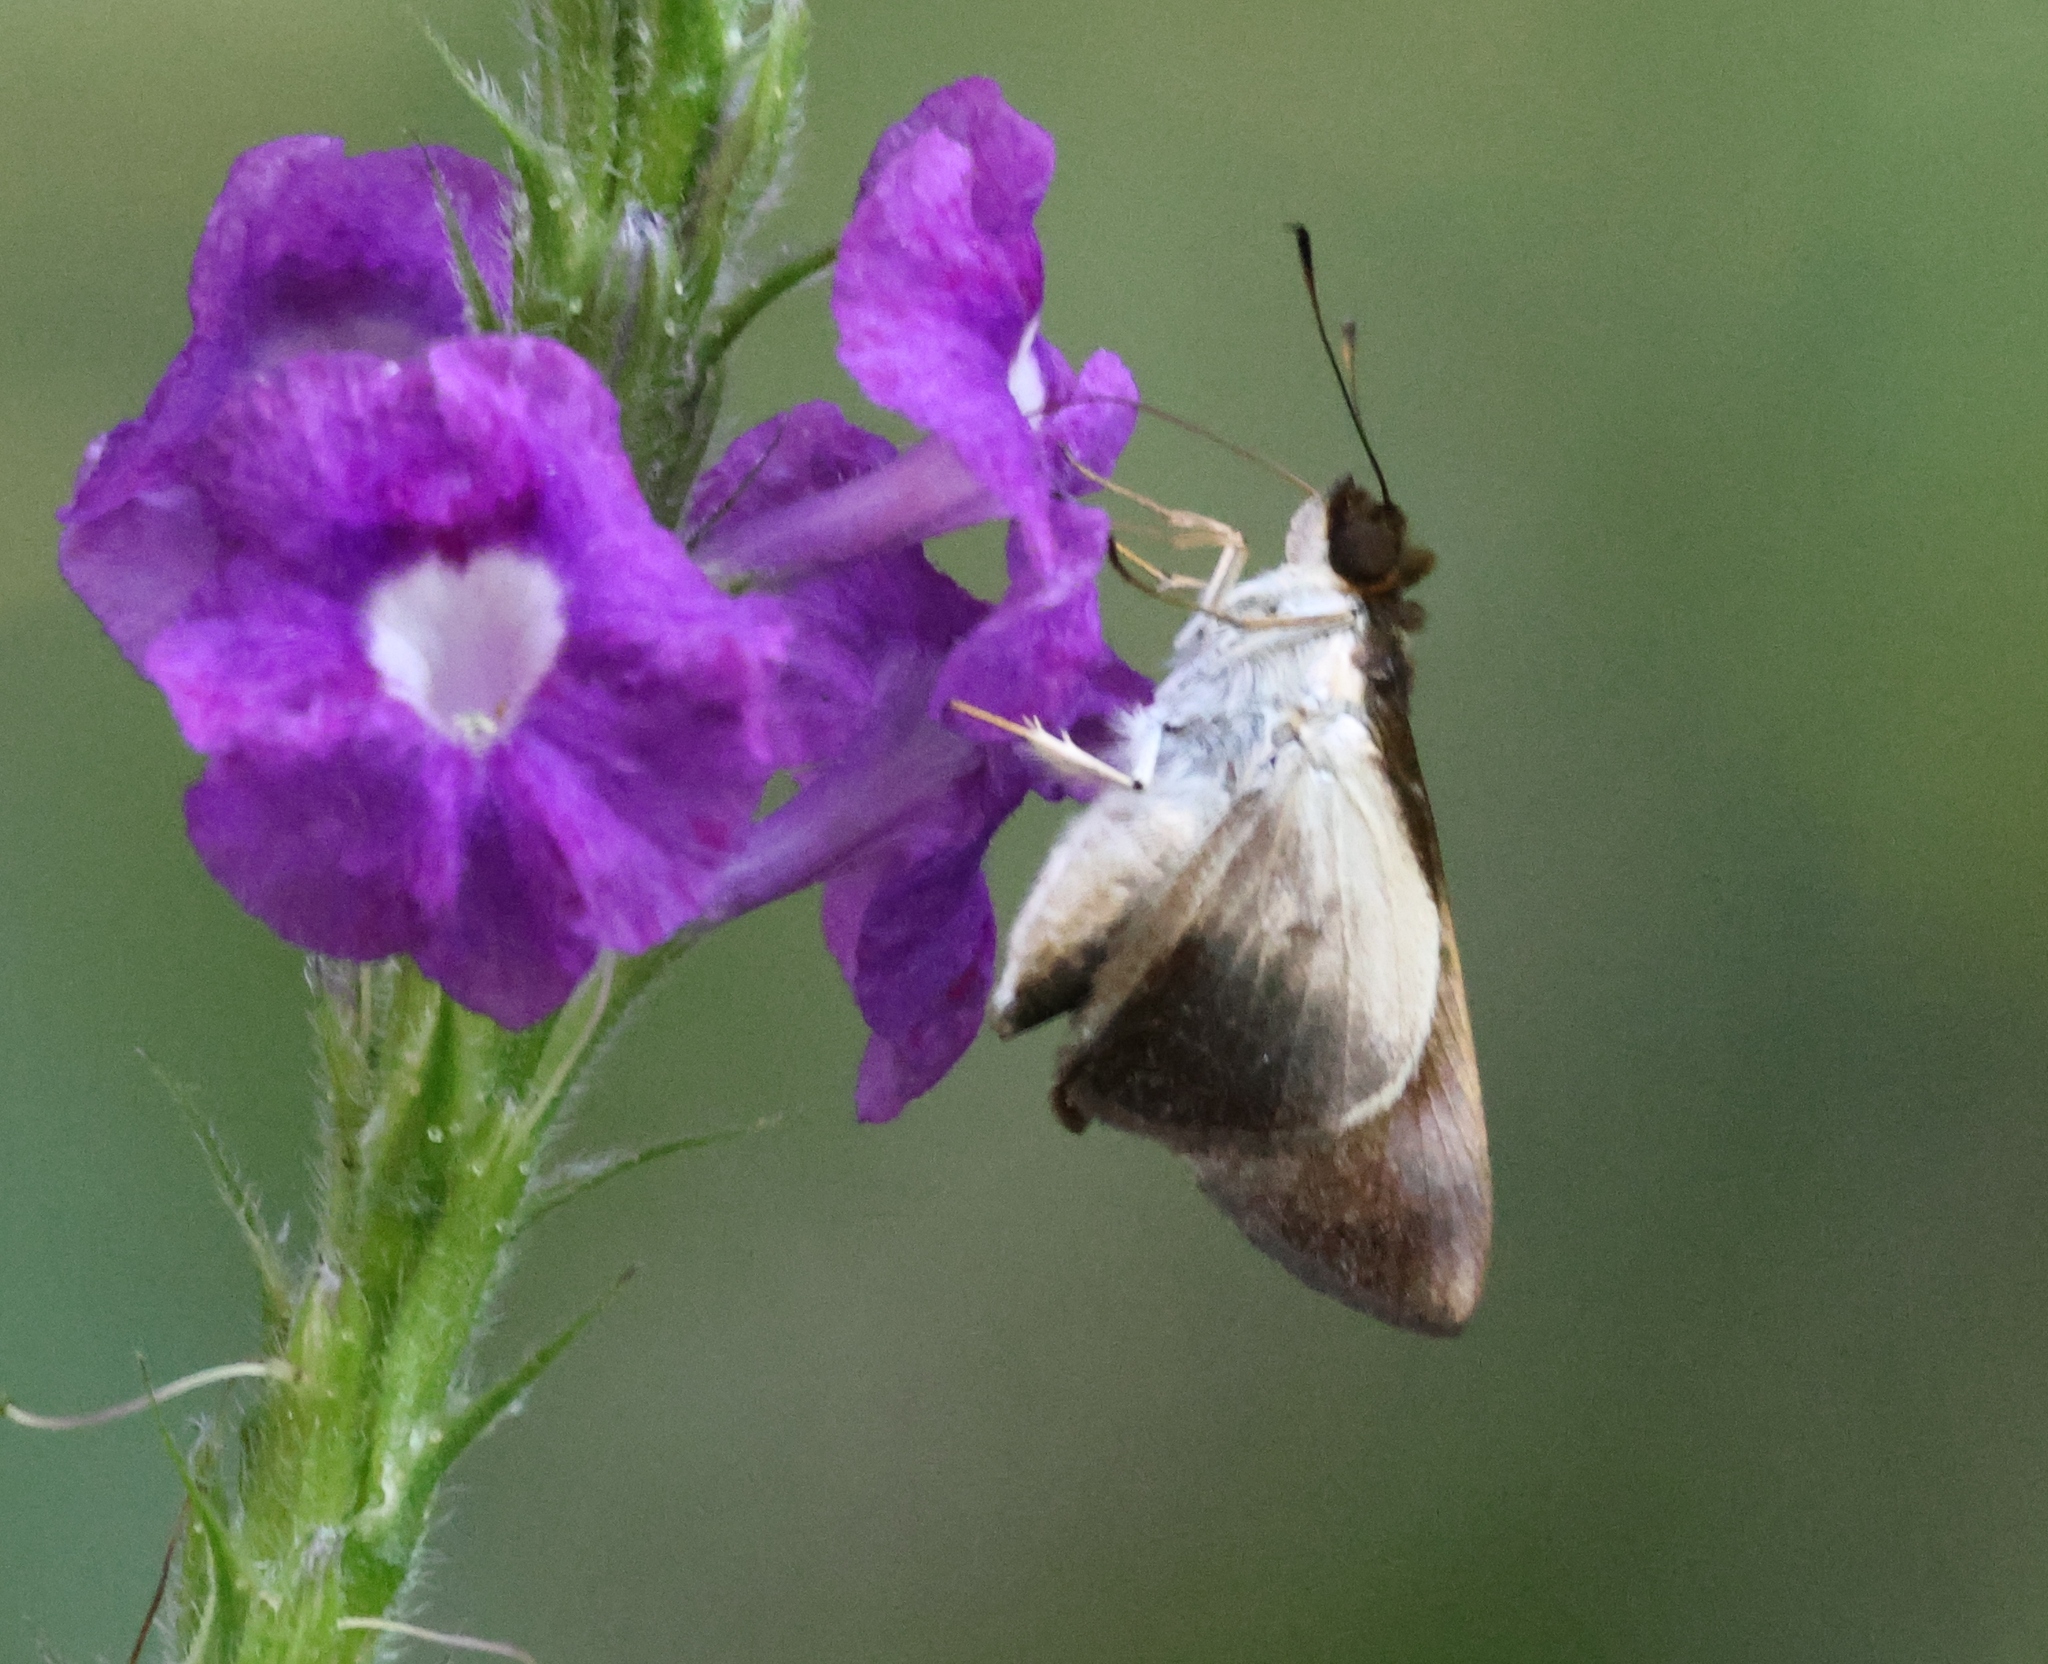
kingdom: Animalia
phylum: Arthropoda
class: Insecta
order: Lepidoptera
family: Hesperiidae
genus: Vettius
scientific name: Vettius tertianus
